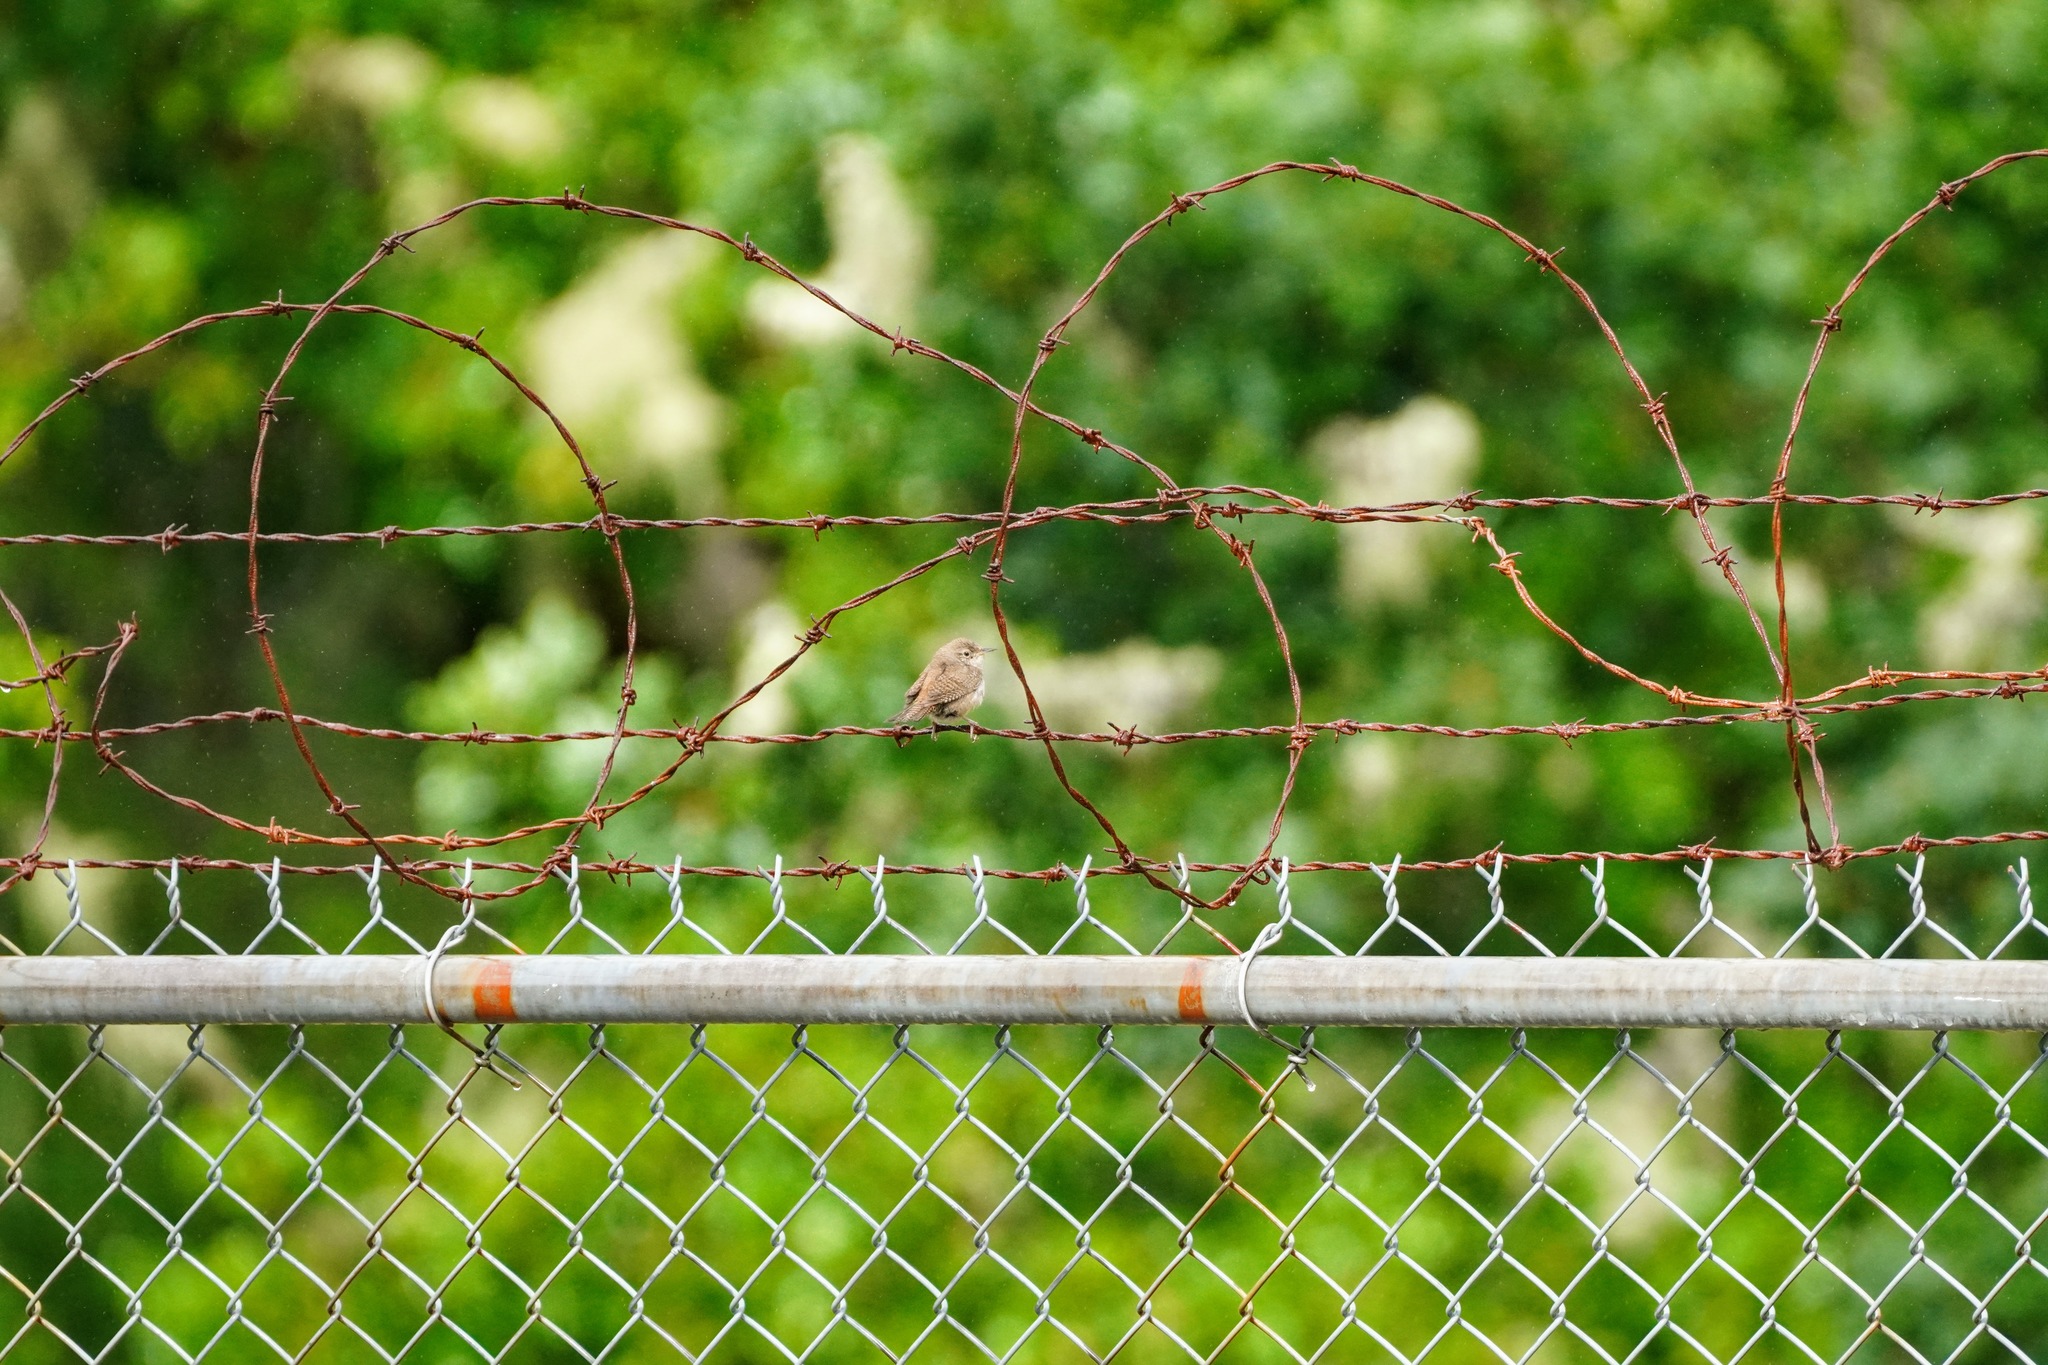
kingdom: Animalia
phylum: Chordata
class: Aves
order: Passeriformes
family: Troglodytidae
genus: Troglodytes
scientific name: Troglodytes aedon
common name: House wren
